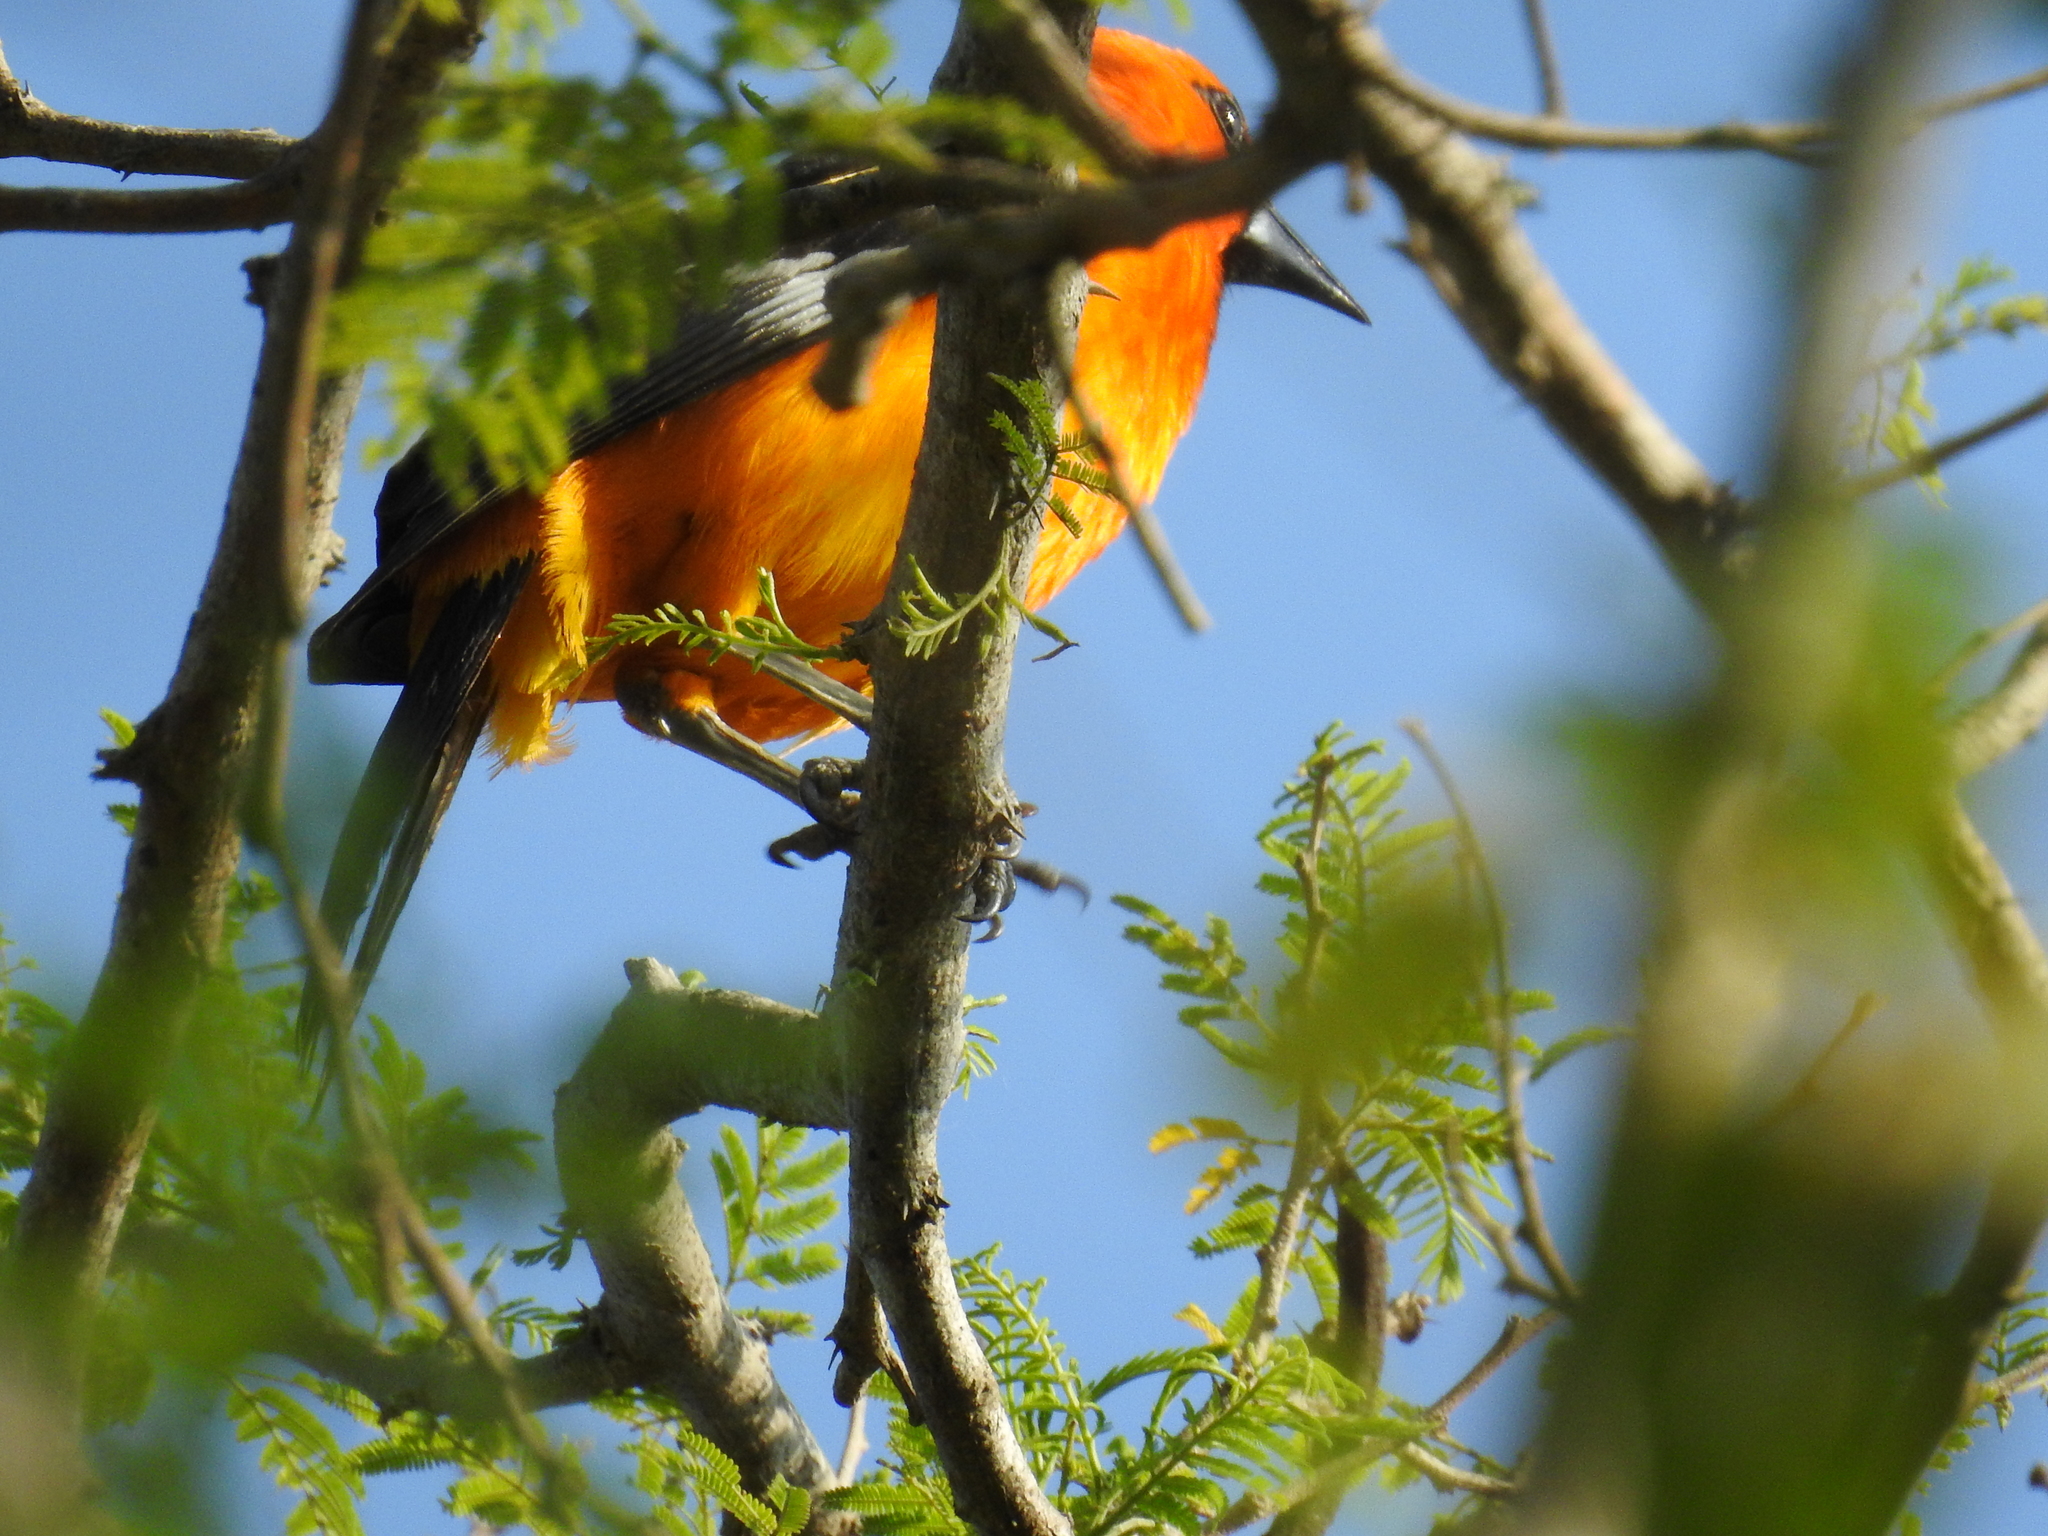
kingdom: Animalia
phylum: Chordata
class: Aves
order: Passeriformes
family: Icteridae
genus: Icterus
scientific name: Icterus gularis
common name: Altamira oriole
